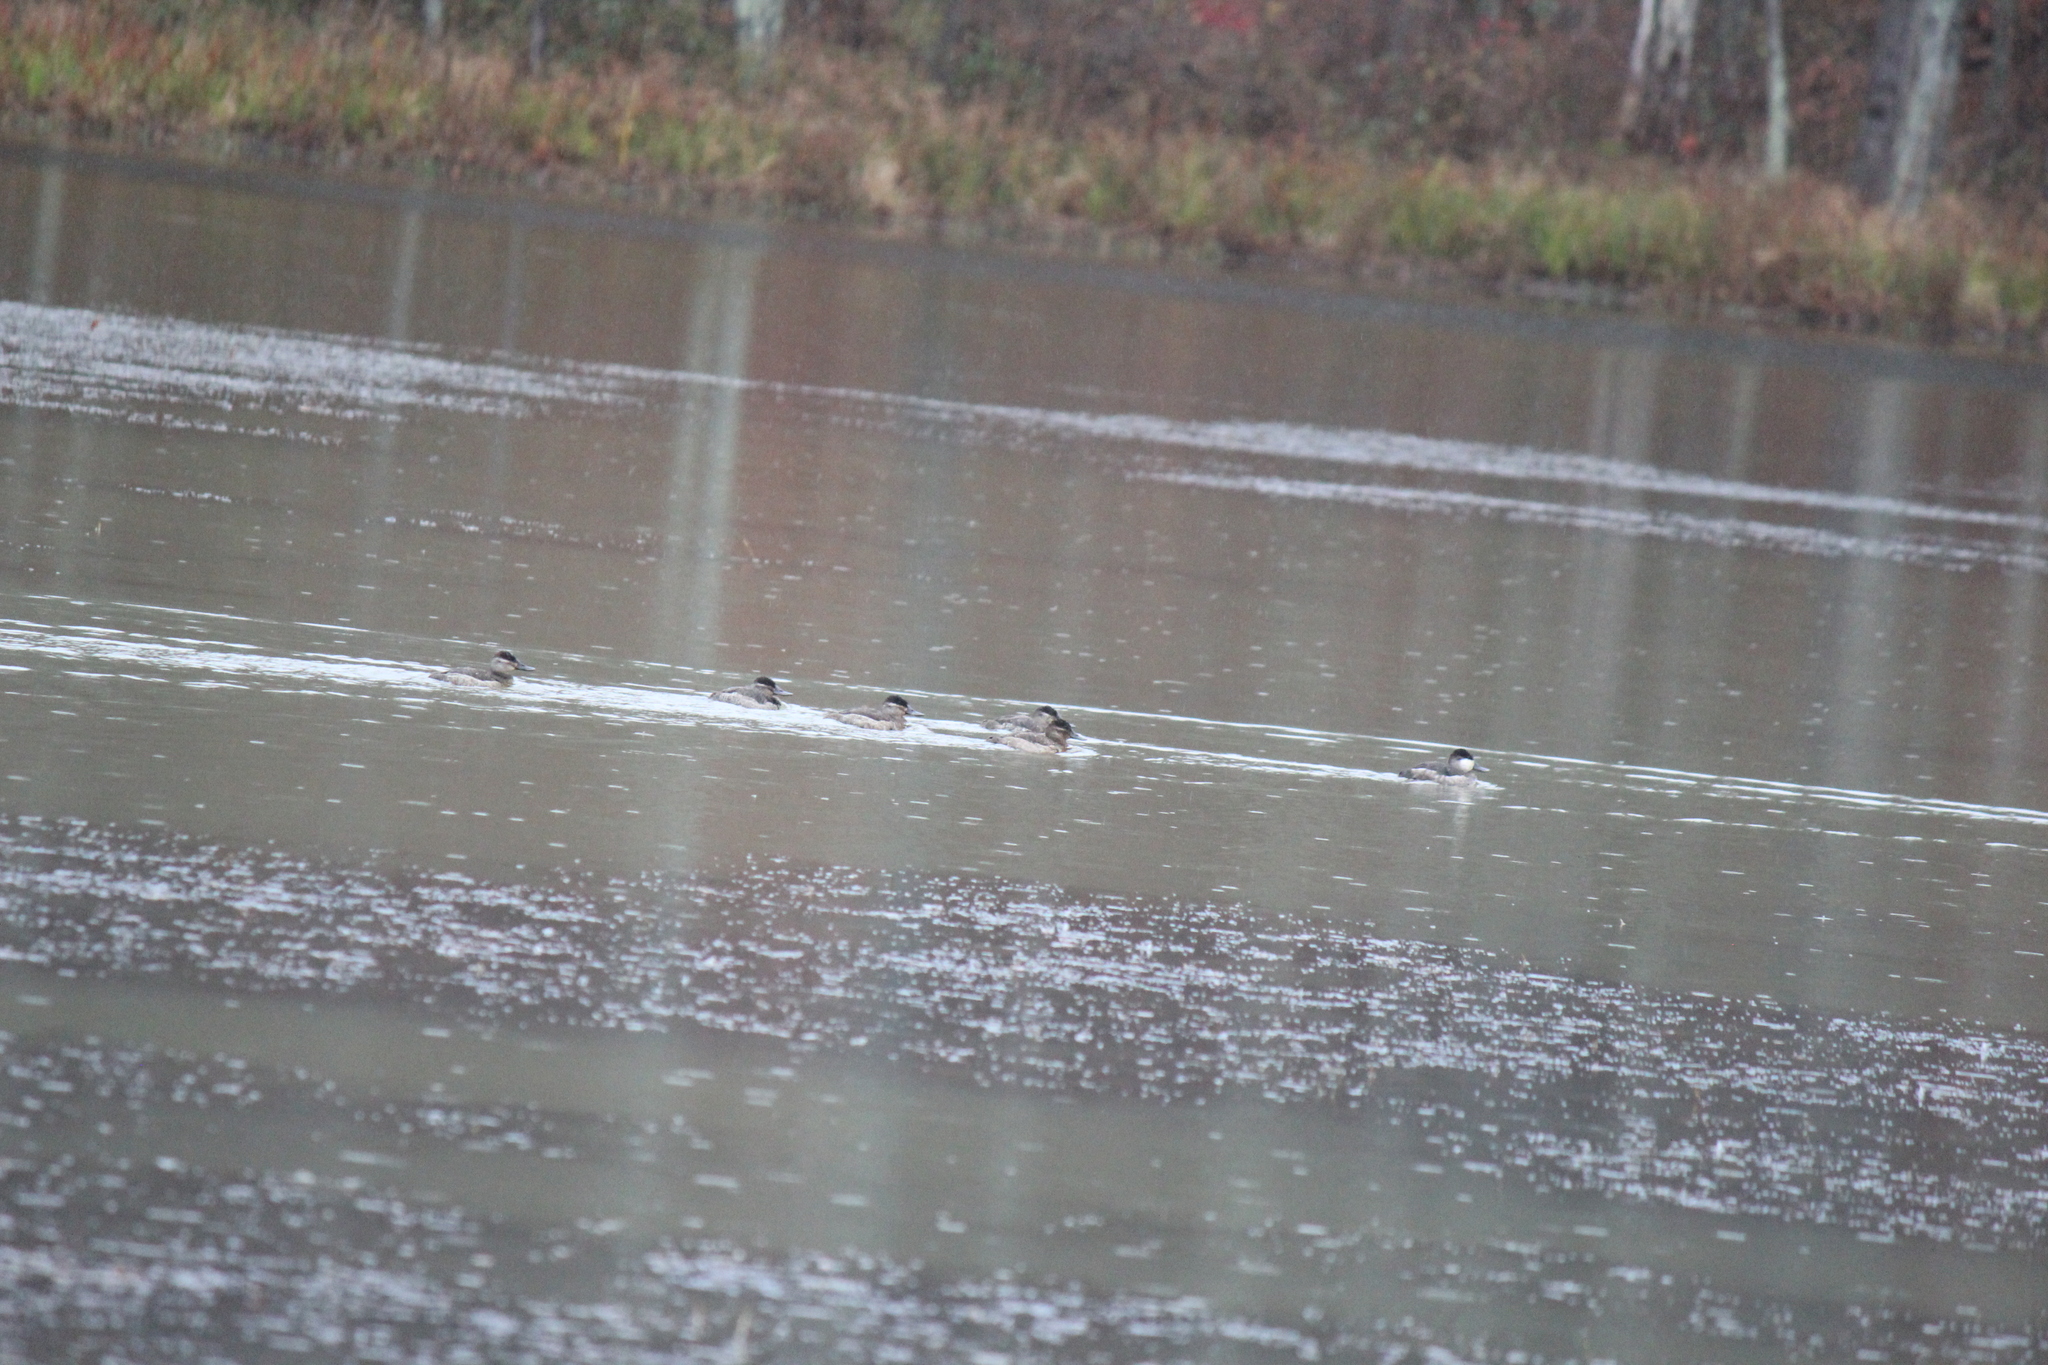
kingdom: Animalia
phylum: Chordata
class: Aves
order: Anseriformes
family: Anatidae
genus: Oxyura
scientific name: Oxyura jamaicensis
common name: Ruddy duck
